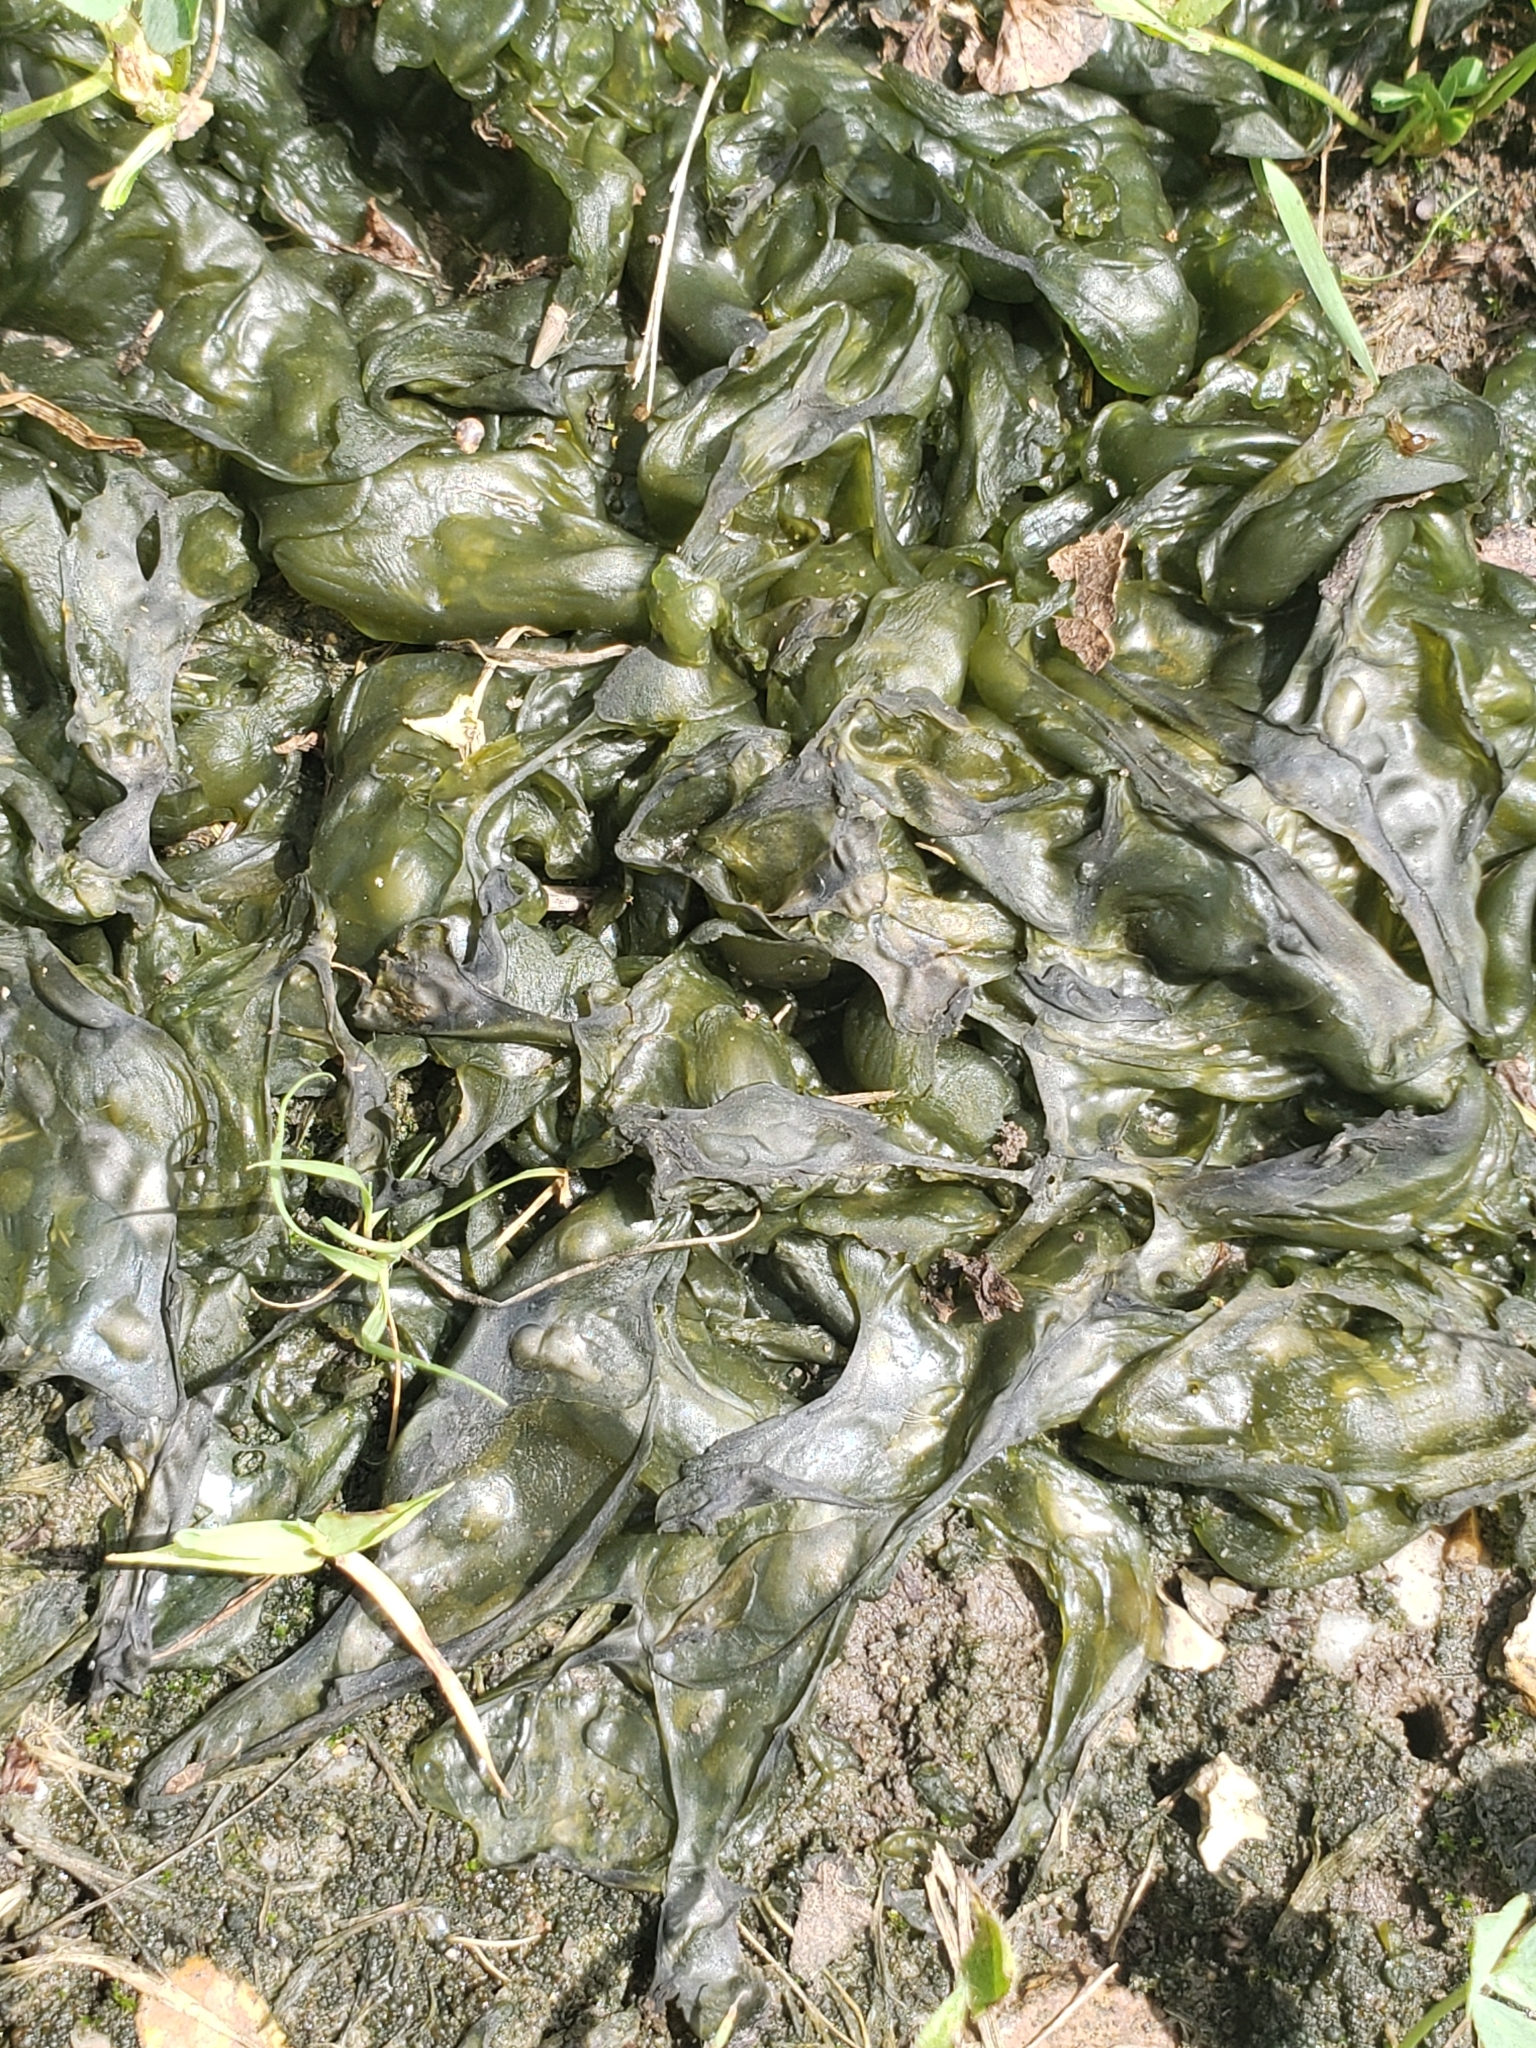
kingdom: Bacteria
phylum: Cyanobacteria
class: Cyanobacteriia
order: Cyanobacteriales
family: Nostocaceae
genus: Nostoc
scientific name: Nostoc commune
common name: Star jelly
